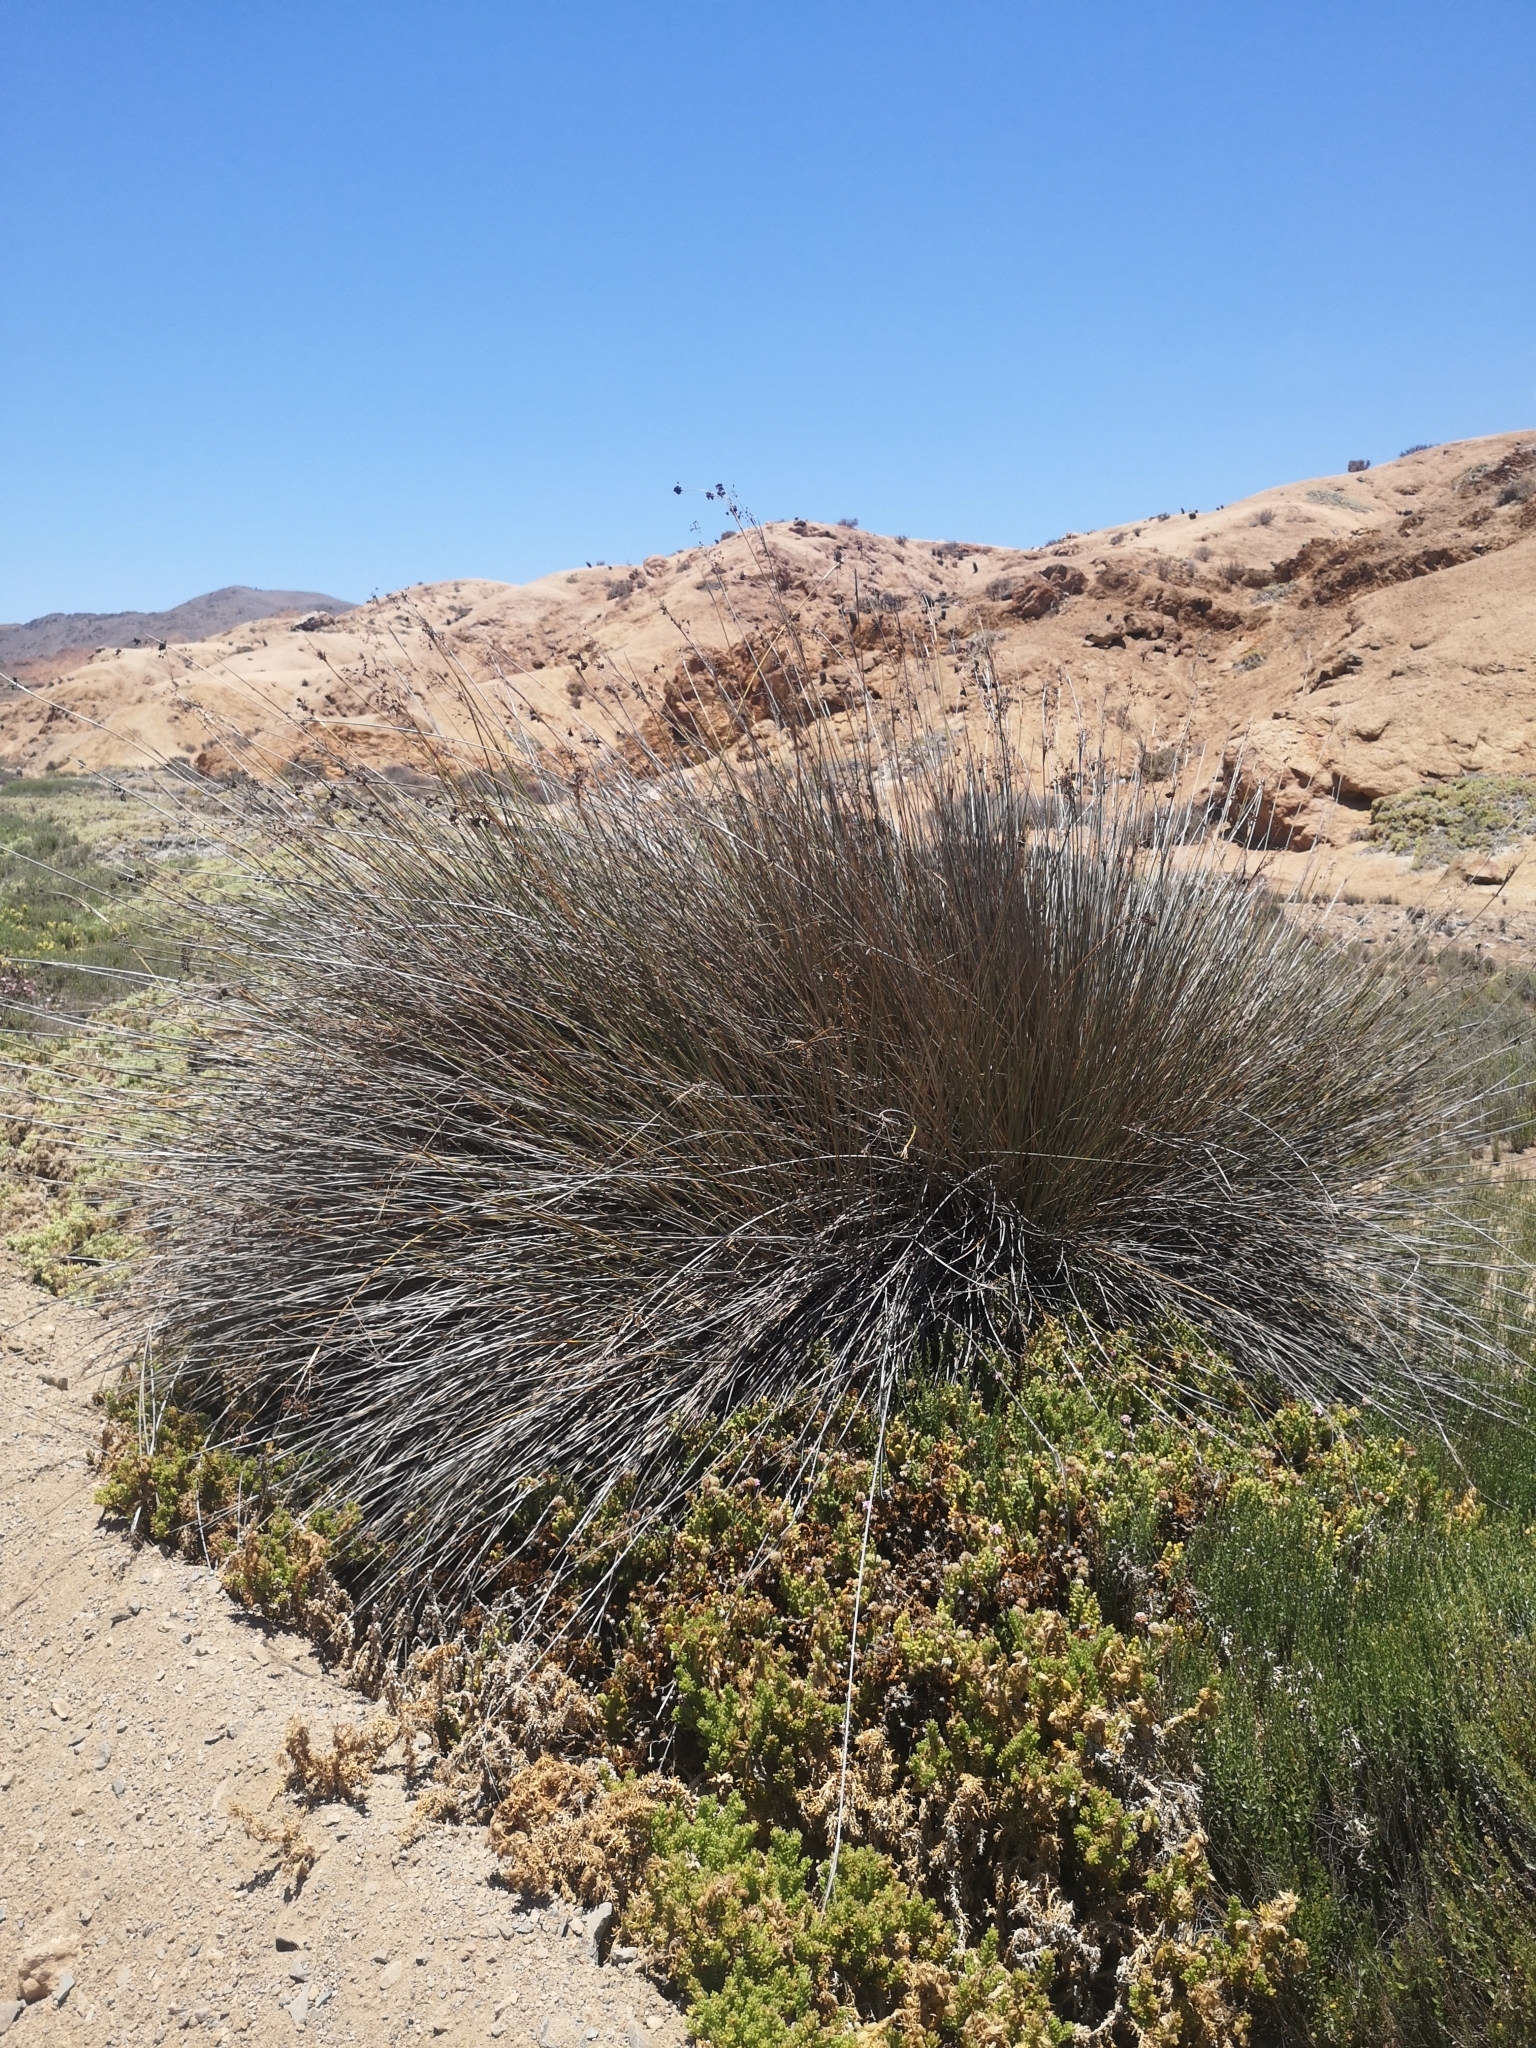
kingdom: Plantae
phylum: Tracheophyta
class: Liliopsida
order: Poales
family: Juncaceae
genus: Juncus
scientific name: Juncus acutus
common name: Sharp rush
